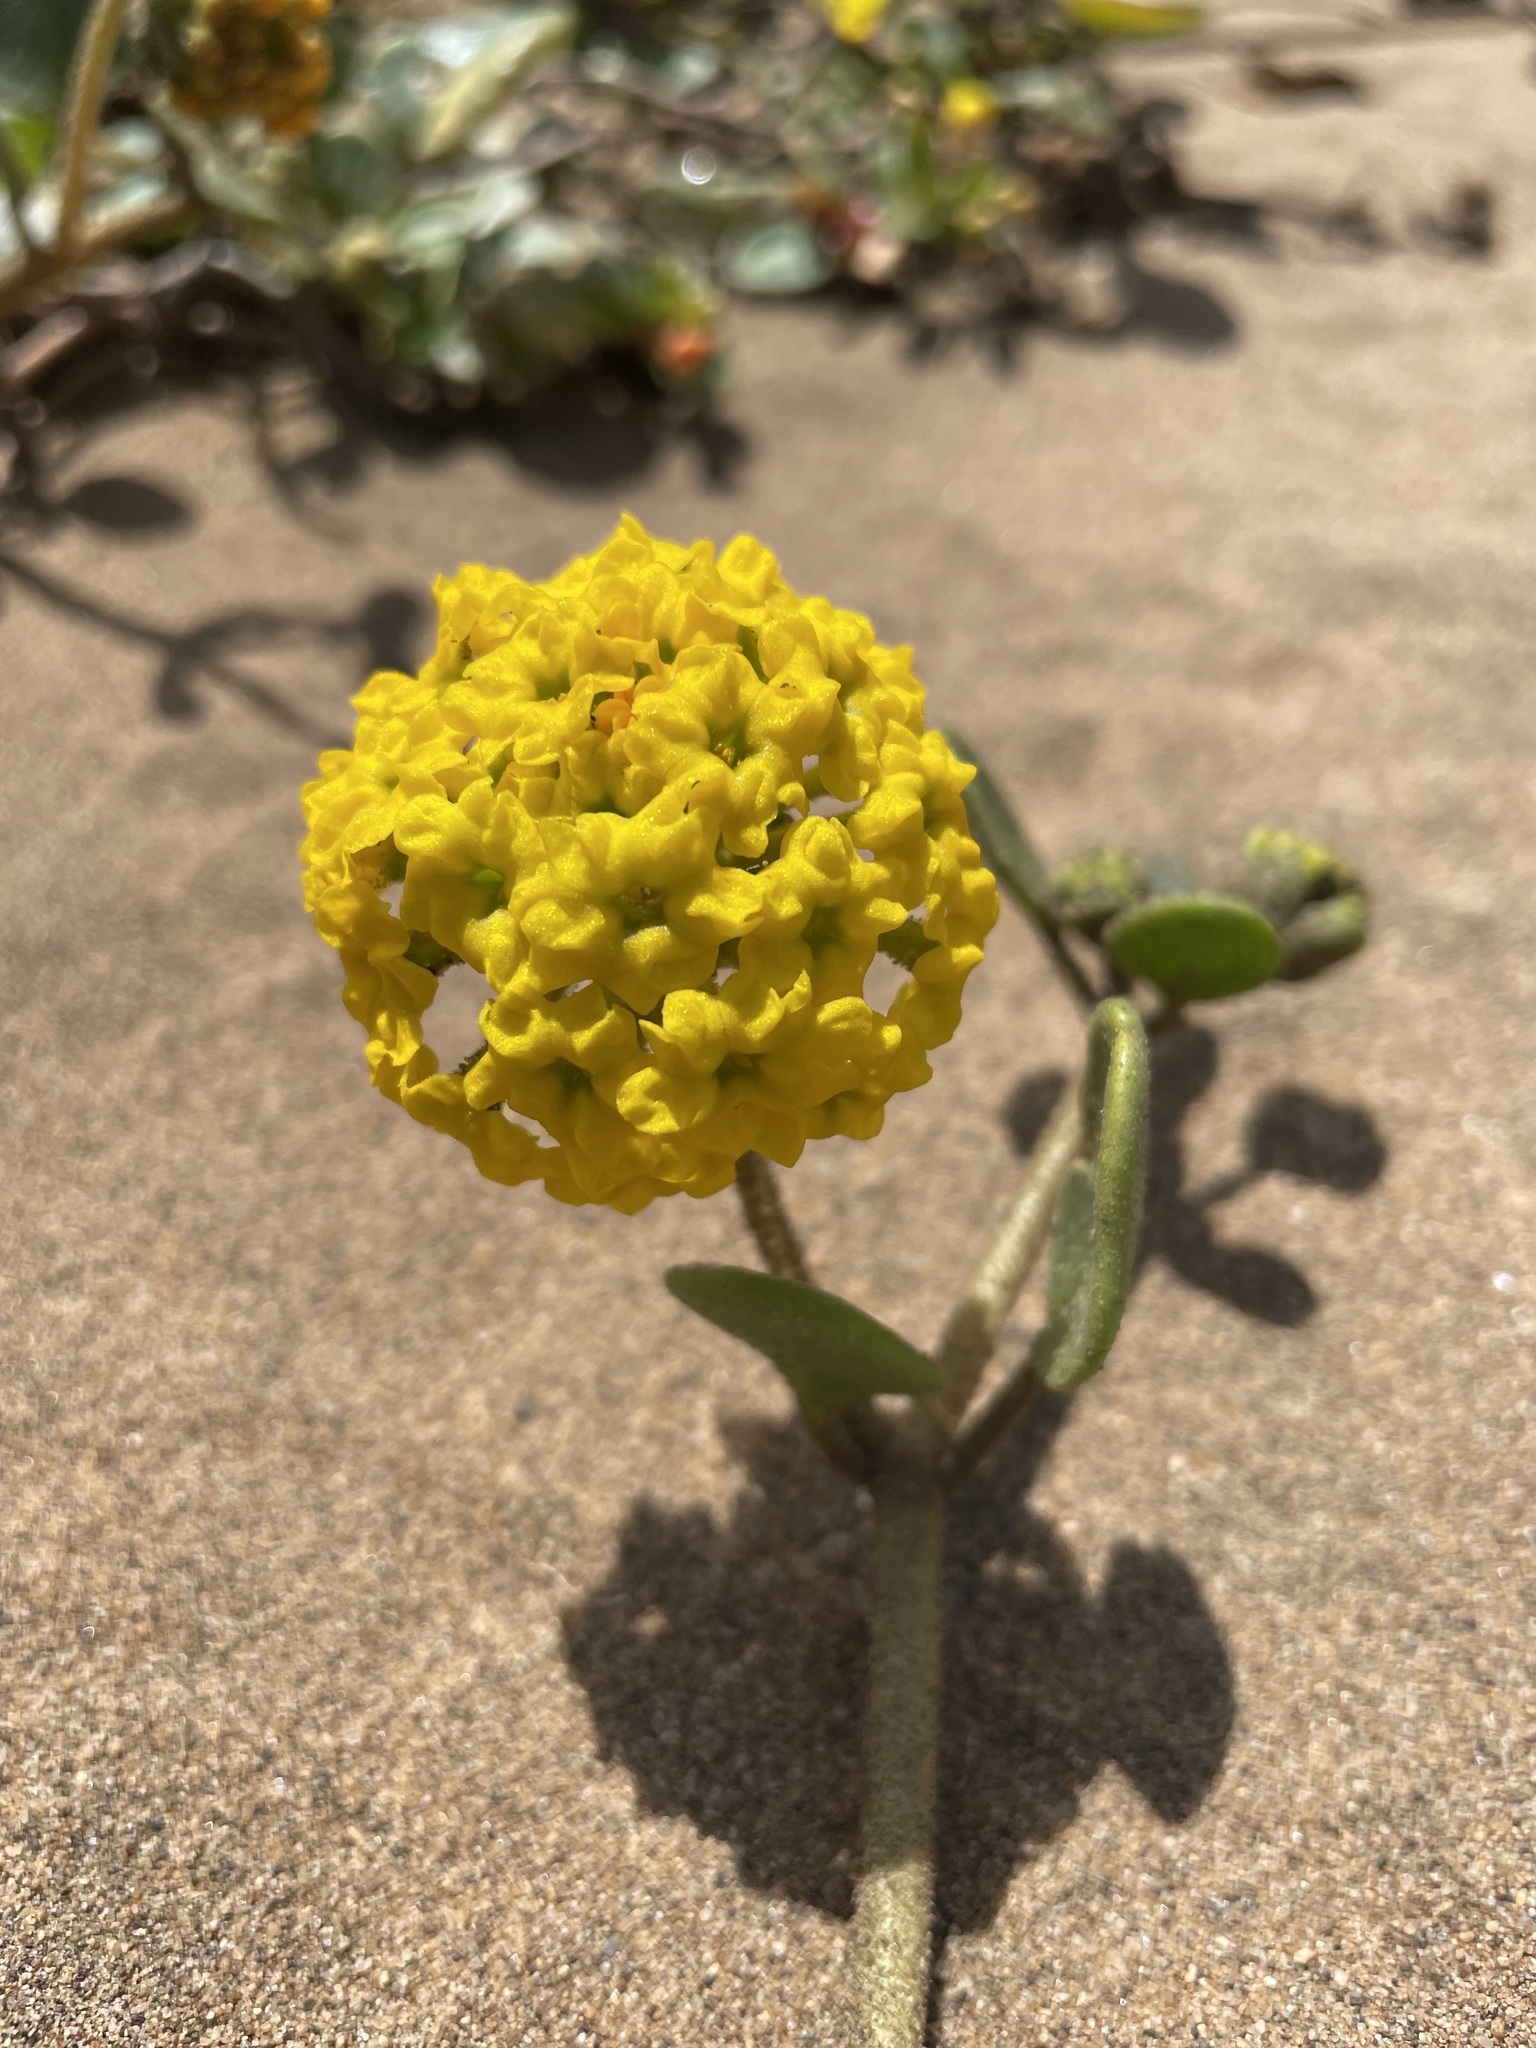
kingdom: Plantae
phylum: Tracheophyta
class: Magnoliopsida
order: Caryophyllales
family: Nyctaginaceae
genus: Abronia
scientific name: Abronia latifolia
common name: Yellow sand-verbena
